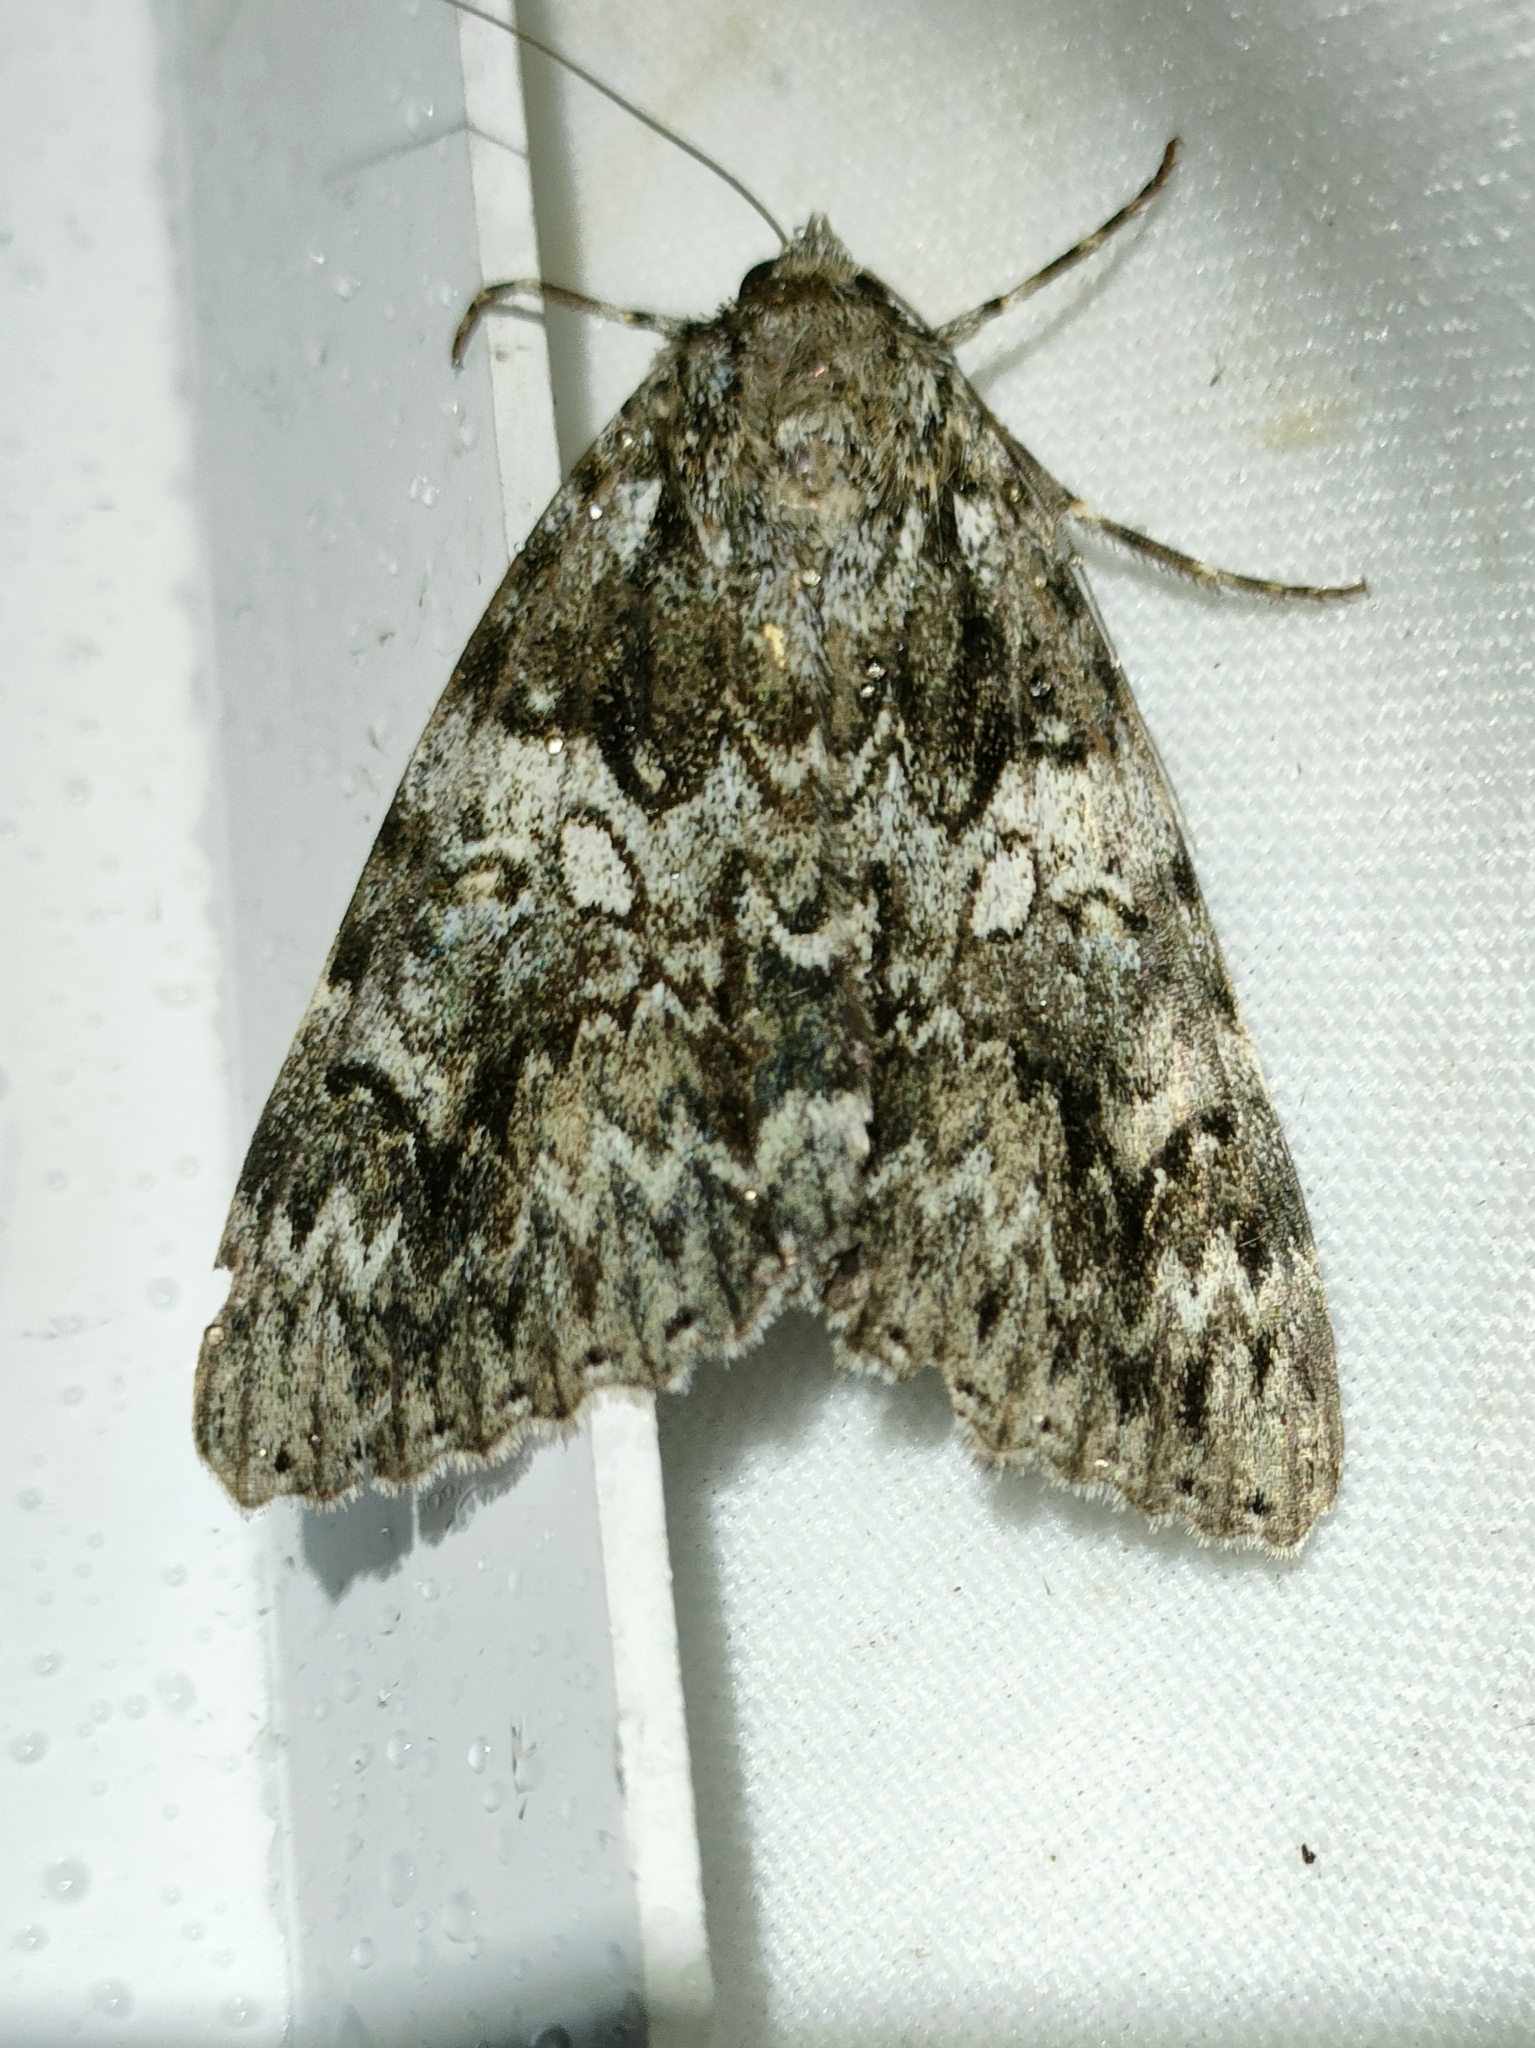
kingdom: Animalia
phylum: Arthropoda
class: Insecta
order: Lepidoptera
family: Erebidae
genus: Catocala
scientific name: Catocala promissa
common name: Light crimson underwing
